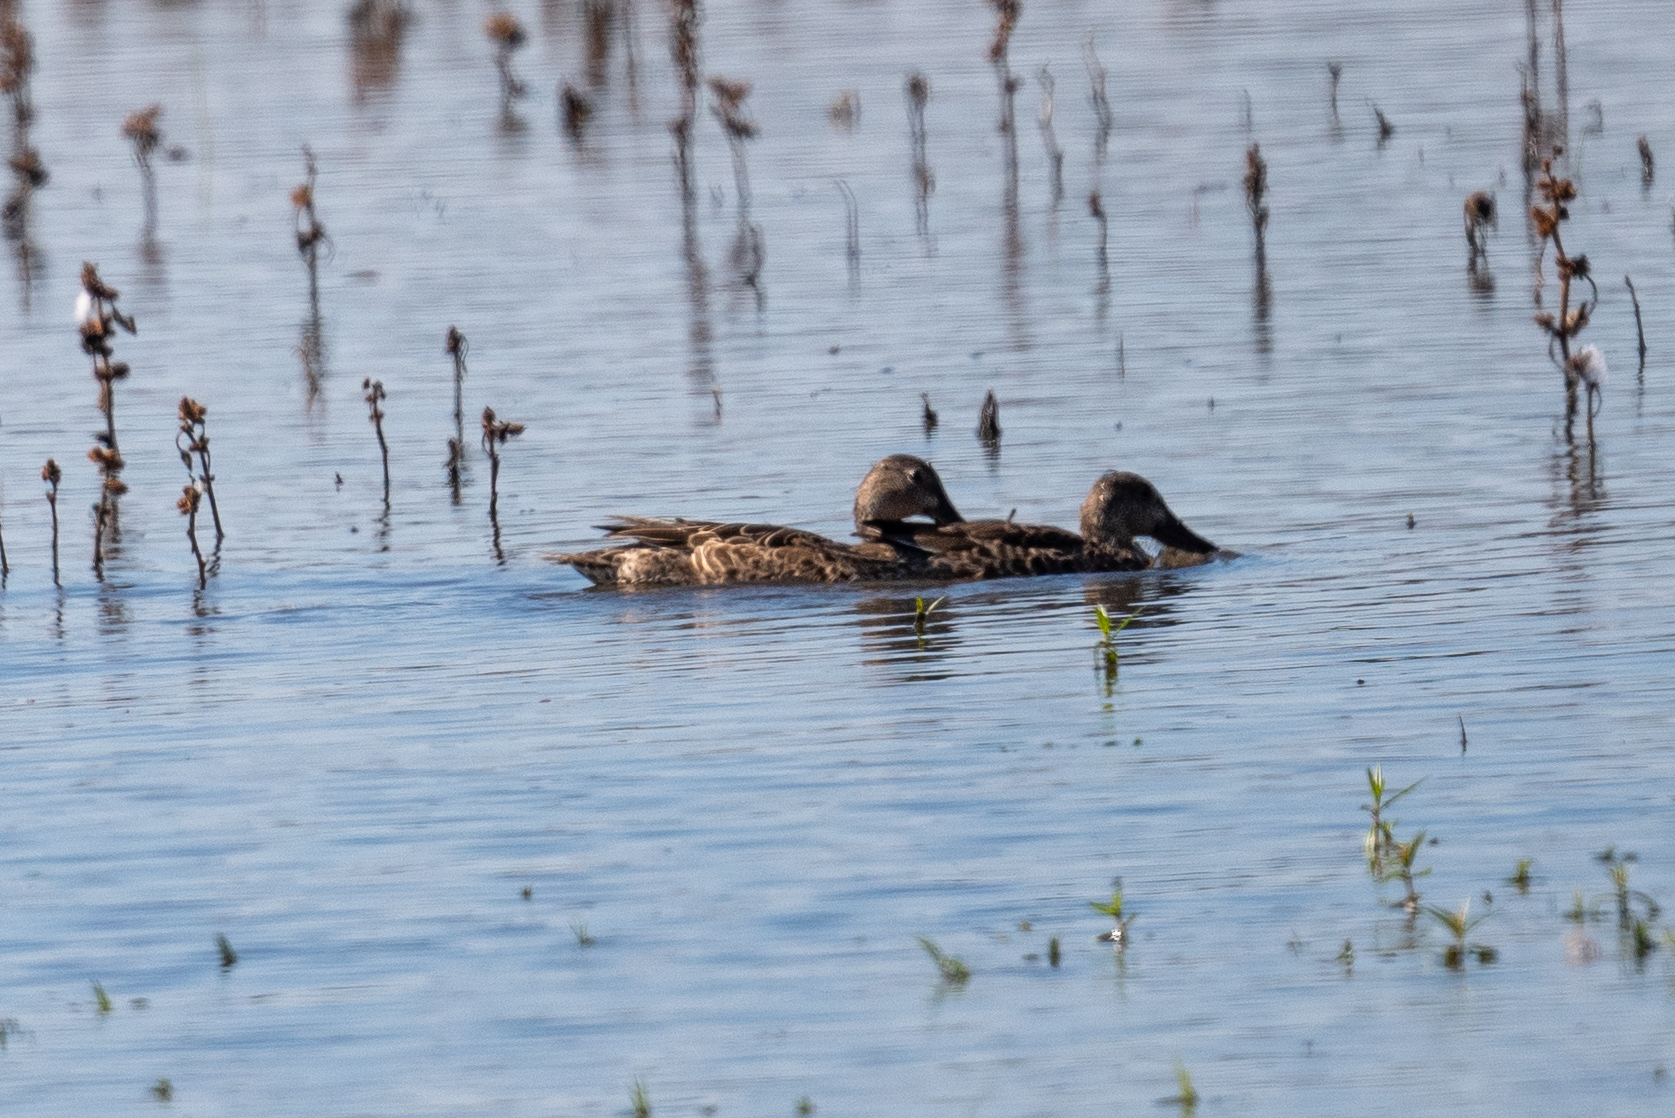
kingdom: Animalia
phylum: Chordata
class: Aves
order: Anseriformes
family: Anatidae
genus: Spatula
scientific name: Spatula clypeata
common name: Northern shoveler
